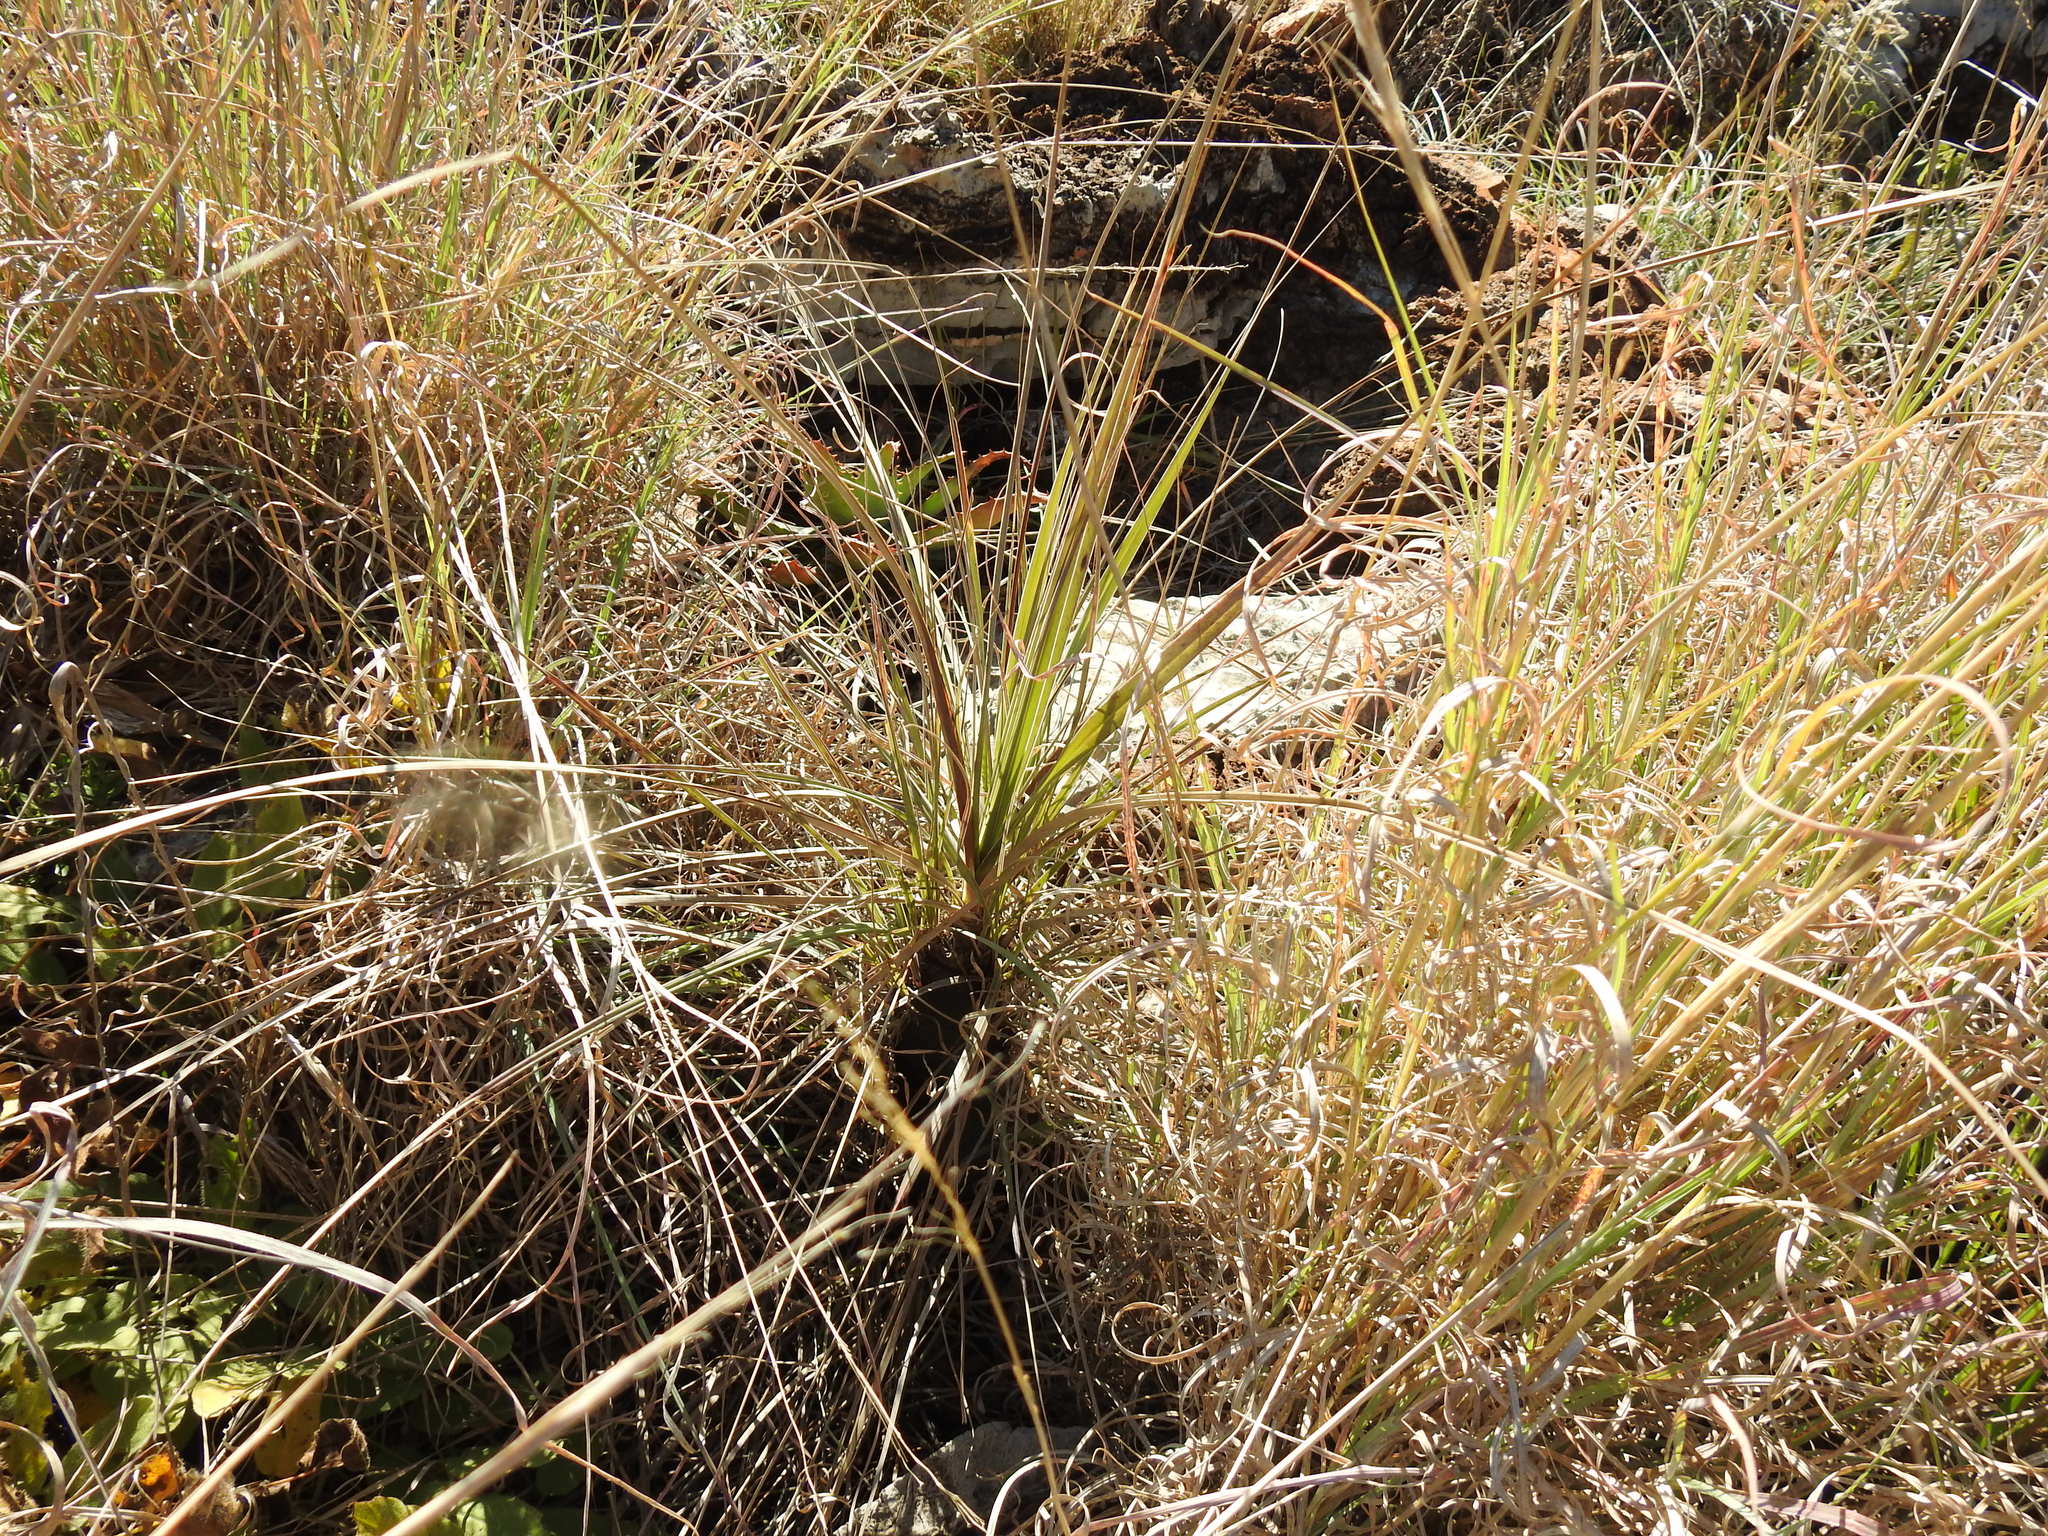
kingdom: Plantae
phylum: Tracheophyta
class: Liliopsida
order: Pandanales
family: Velloziaceae
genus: Xerophyta
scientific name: Xerophyta retinervis
